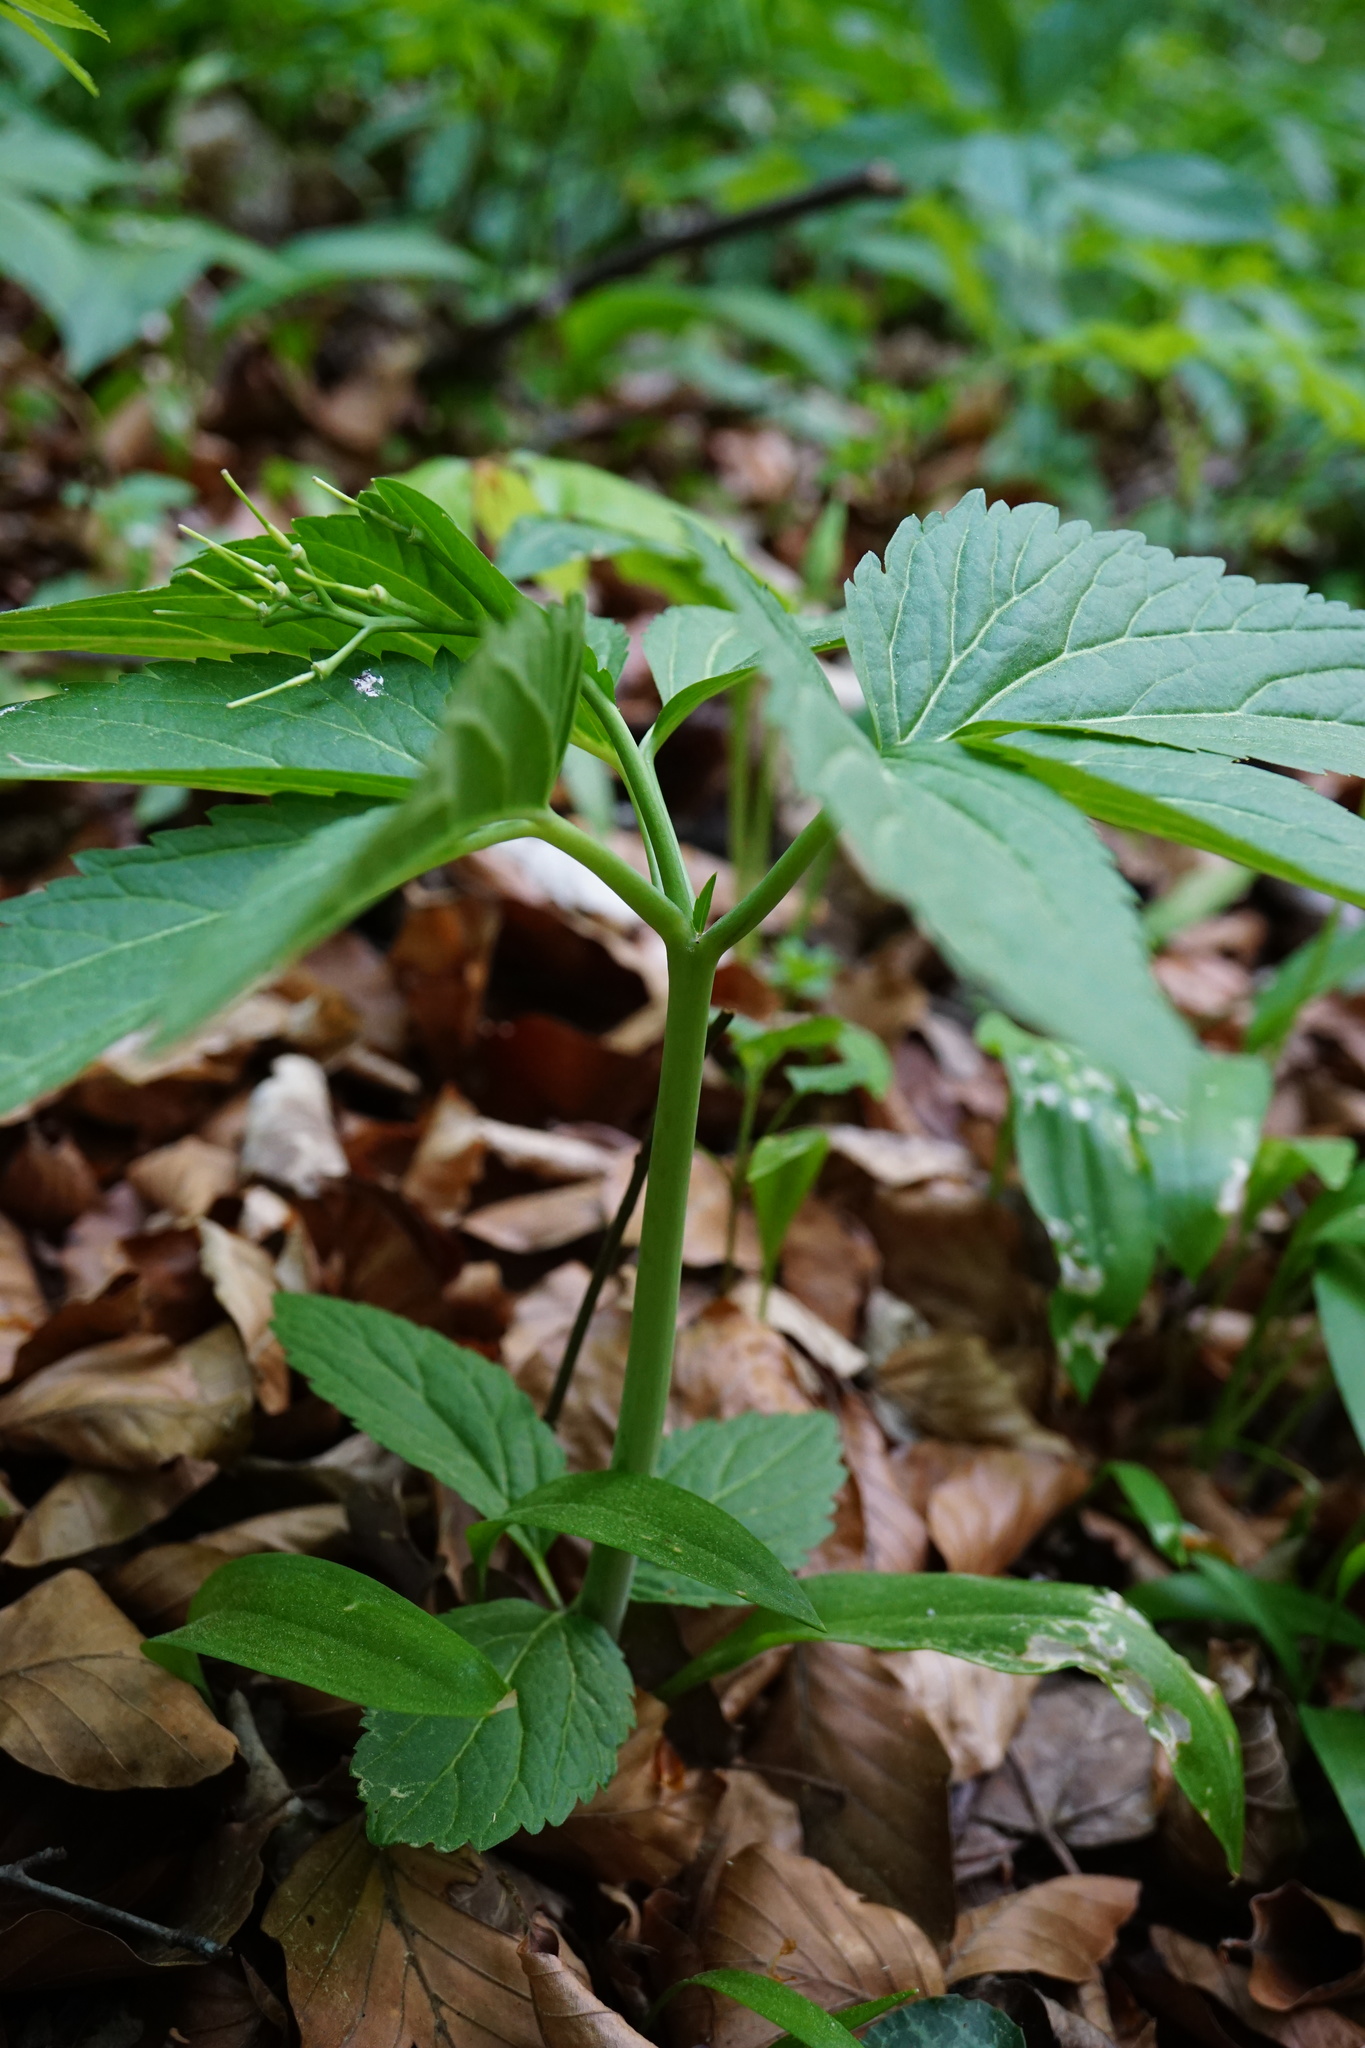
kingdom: Plantae
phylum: Tracheophyta
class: Magnoliopsida
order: Brassicales
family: Brassicaceae
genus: Cardamine
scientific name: Cardamine enneaphyllos
